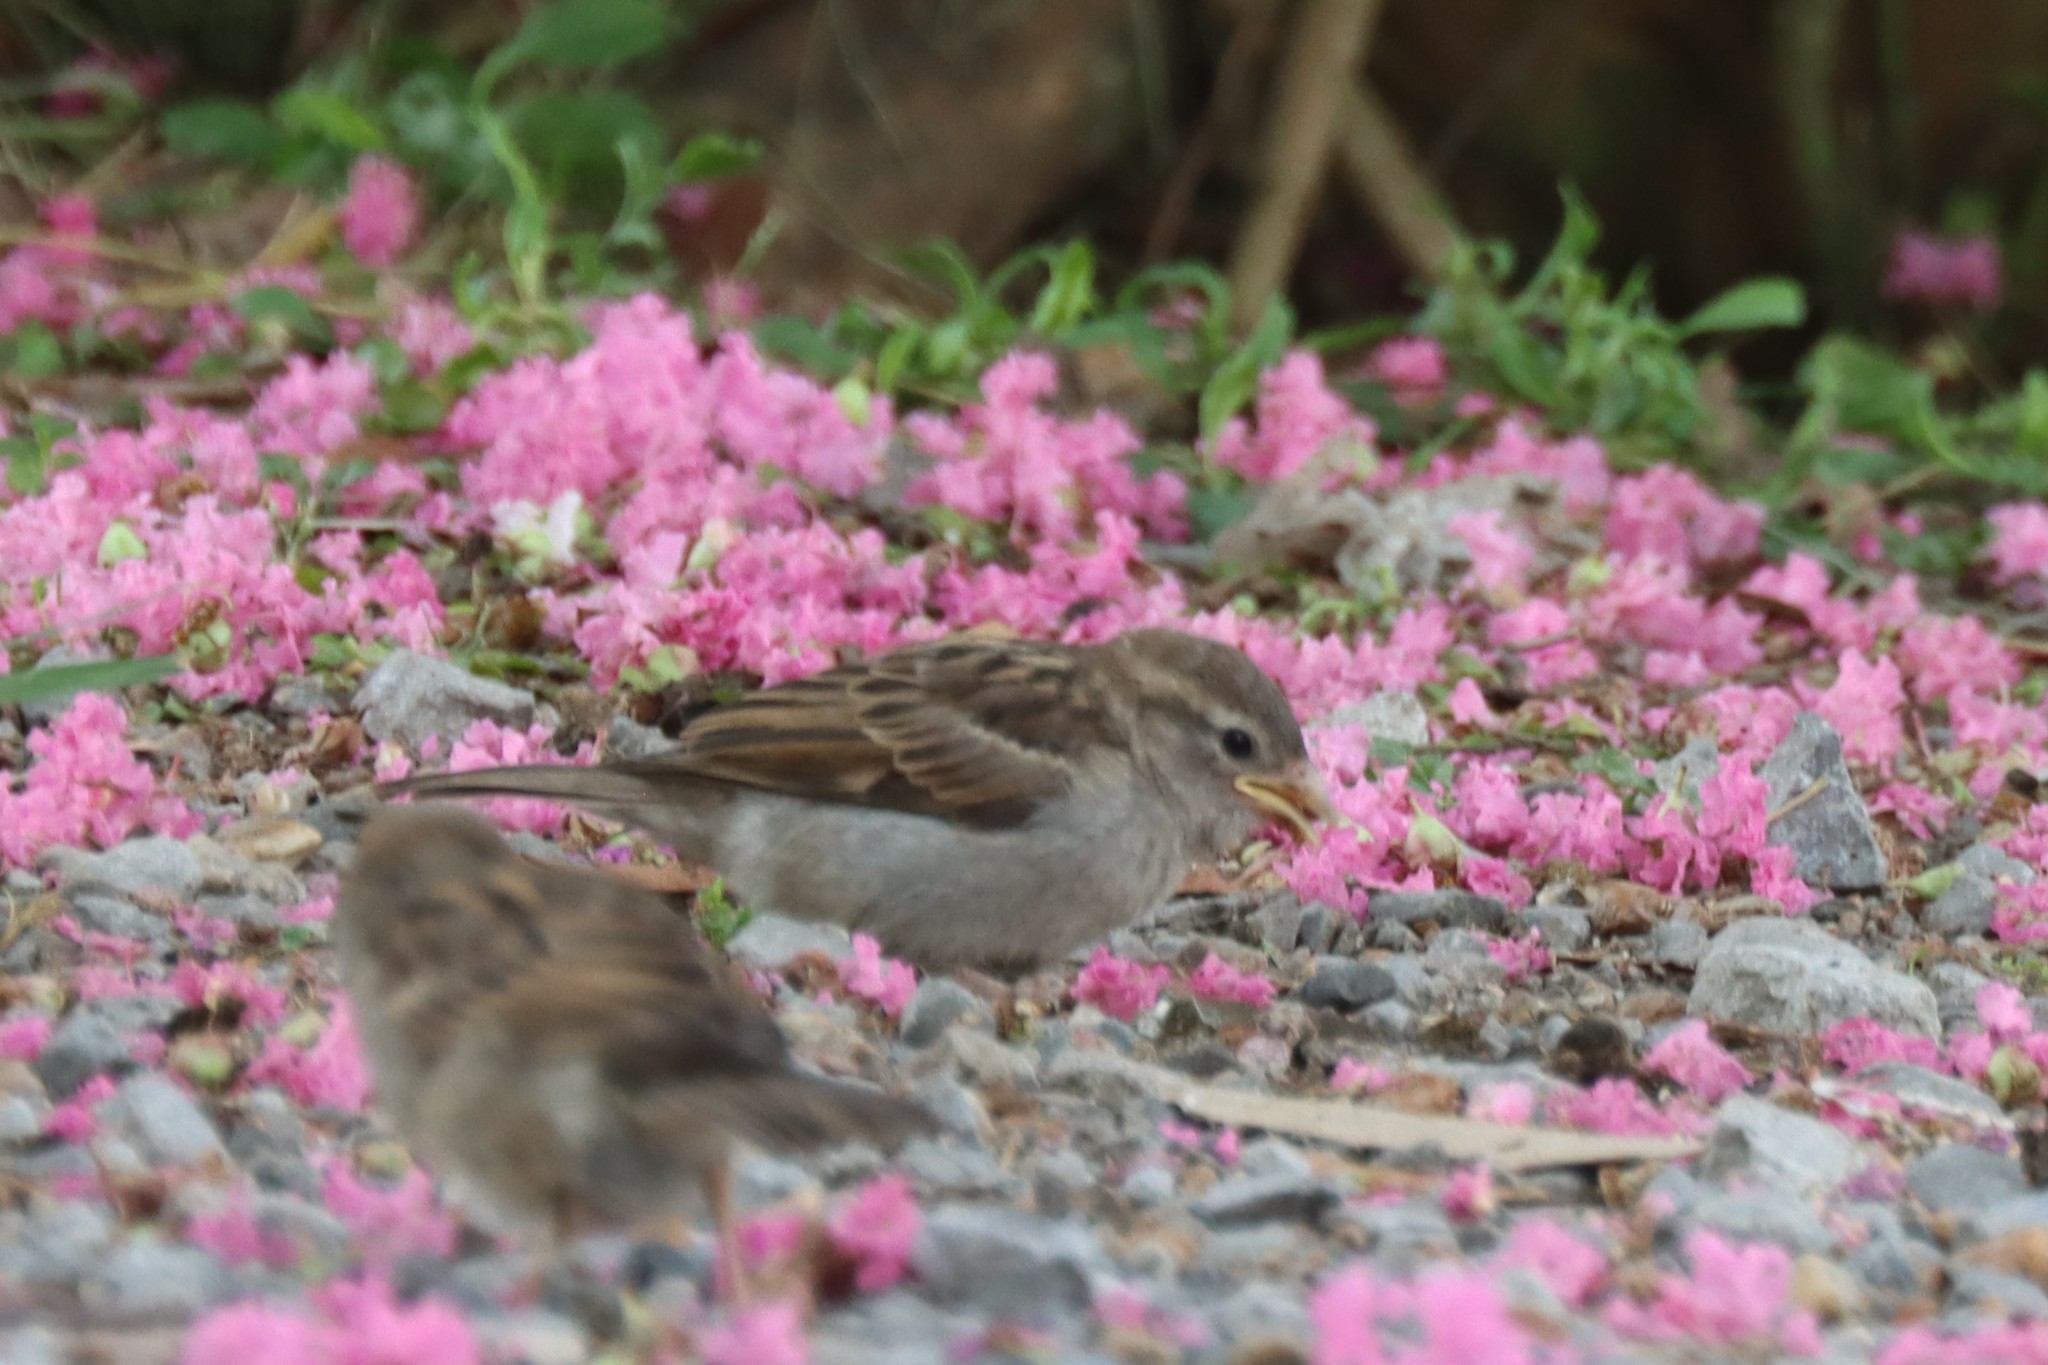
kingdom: Animalia
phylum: Chordata
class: Aves
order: Passeriformes
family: Passeridae
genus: Passer
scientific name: Passer domesticus
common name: House sparrow
